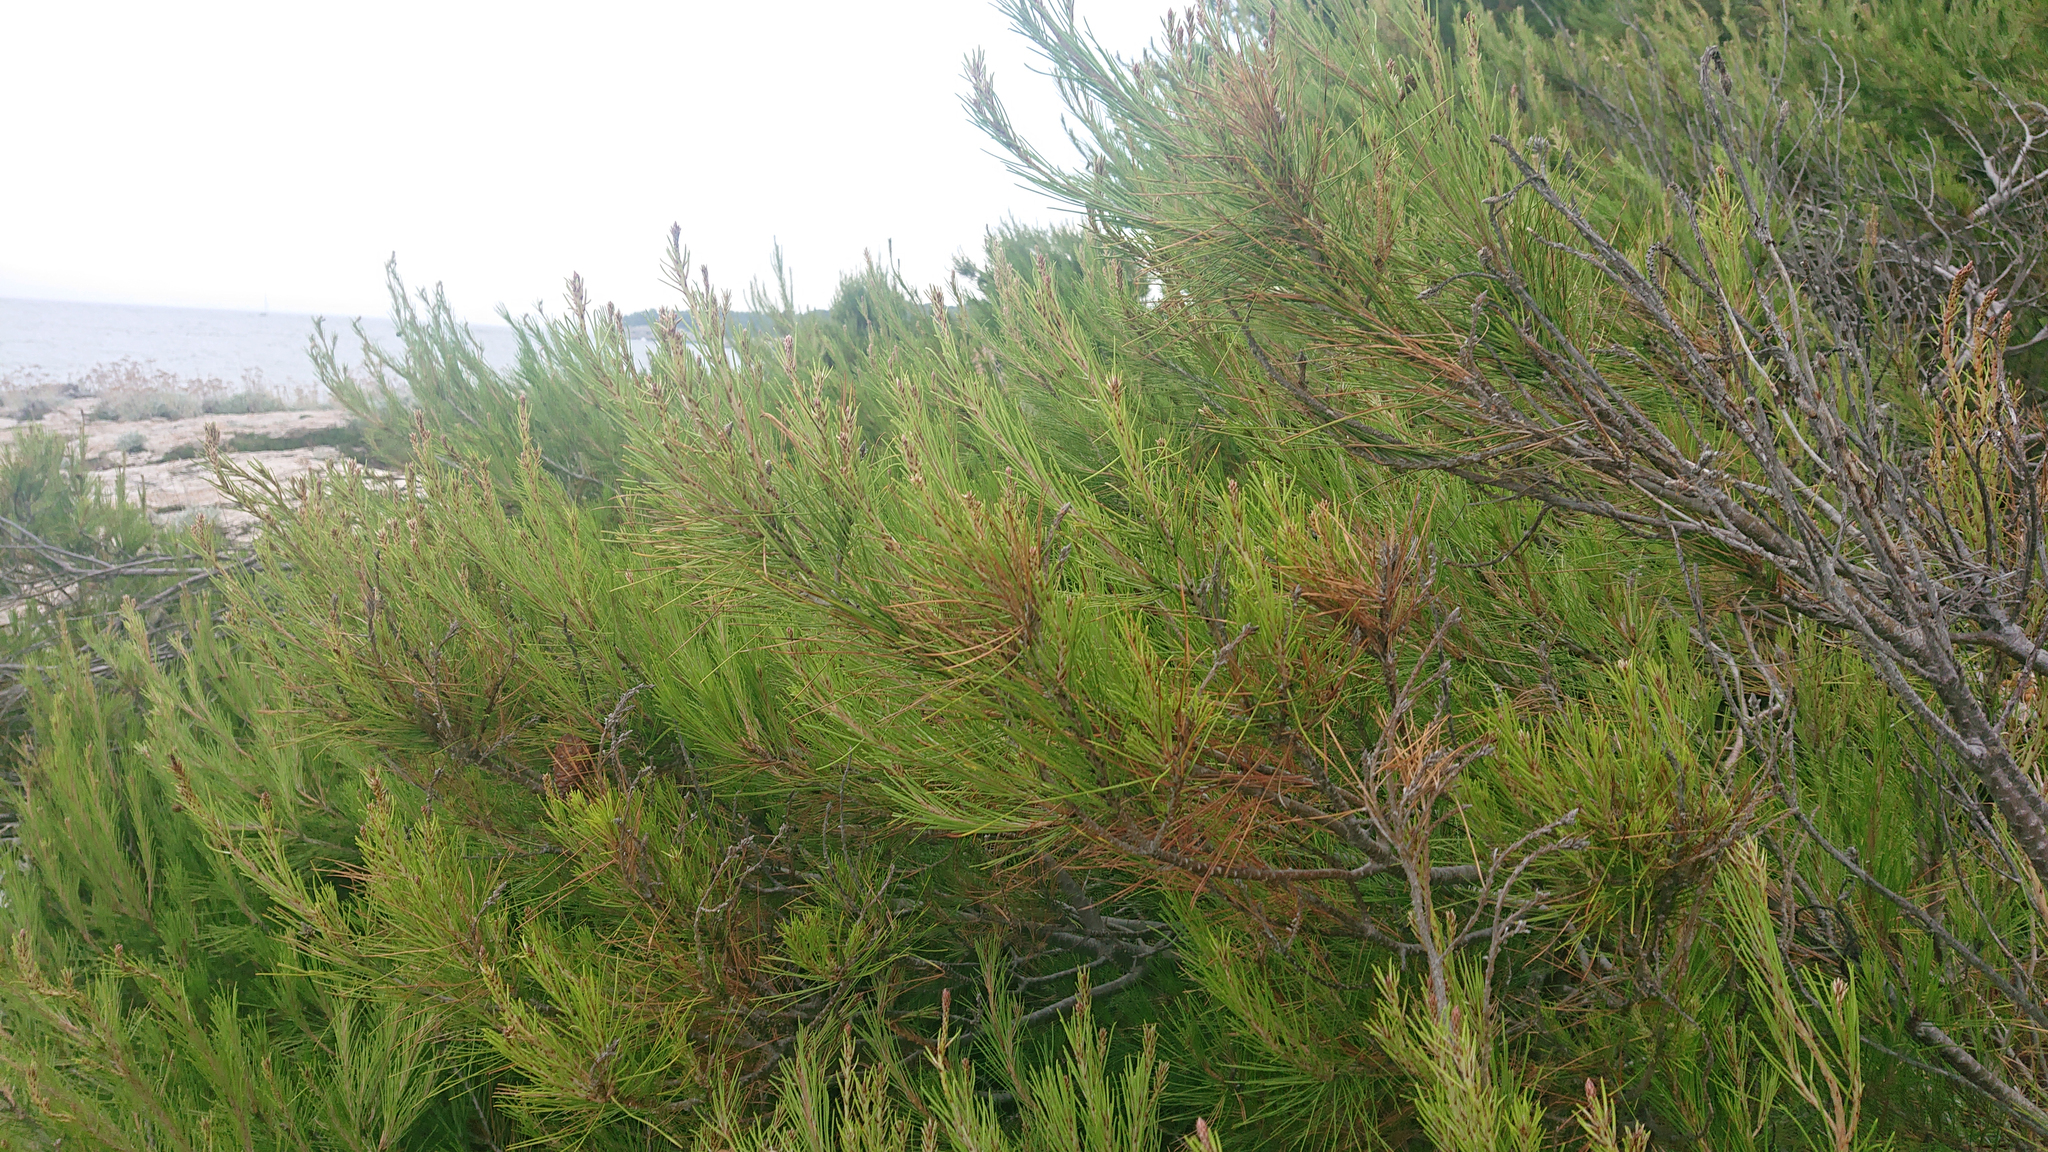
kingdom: Plantae
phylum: Tracheophyta
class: Pinopsida
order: Pinales
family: Pinaceae
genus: Pinus
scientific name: Pinus halepensis
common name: Aleppo pine
